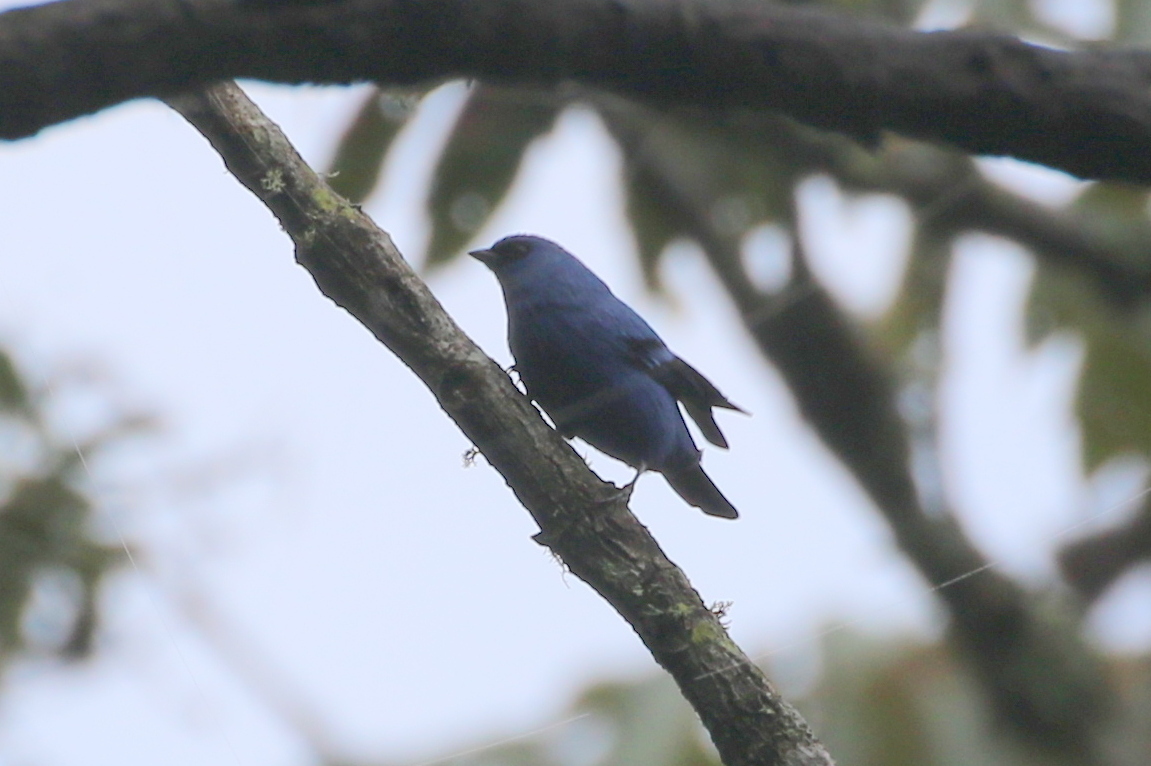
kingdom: Animalia
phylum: Chordata
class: Aves
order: Passeriformes
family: Thraupidae
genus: Tangara
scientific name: Tangara vassorii
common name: Blue-and-black tanager
